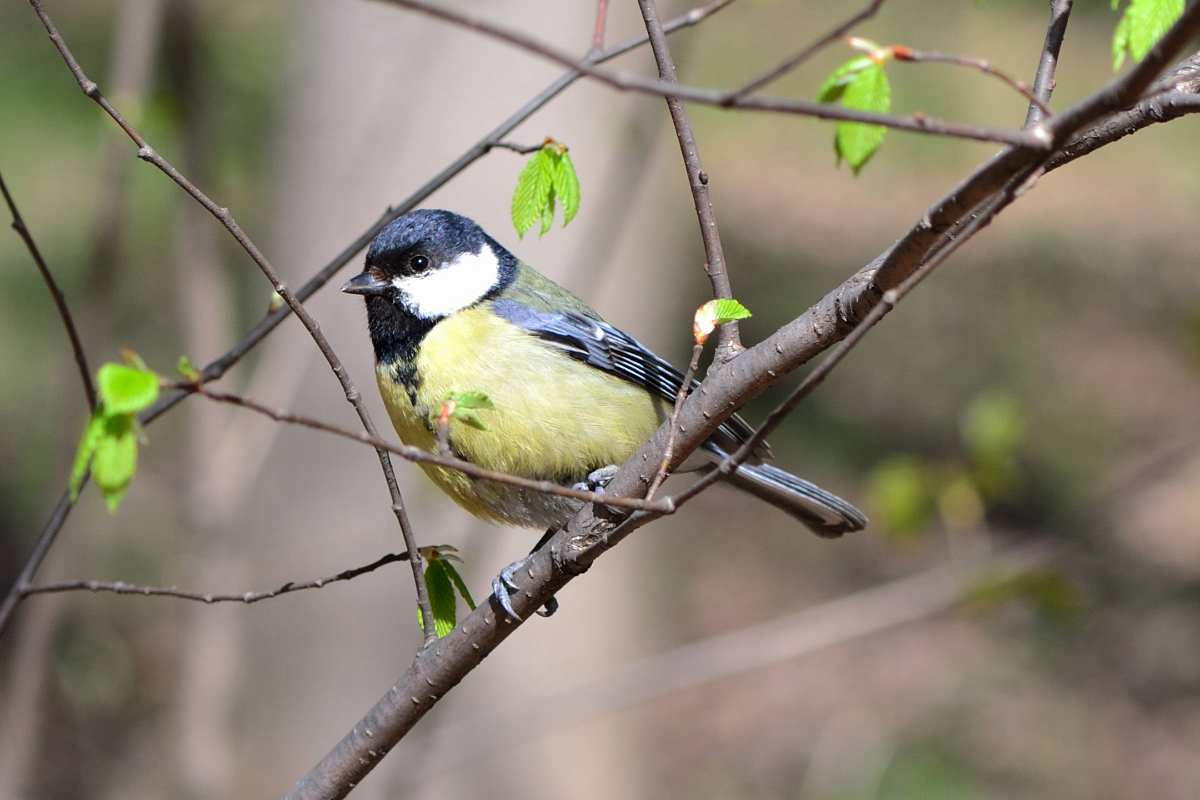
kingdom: Animalia
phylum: Chordata
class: Aves
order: Passeriformes
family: Paridae
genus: Parus
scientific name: Parus major
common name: Great tit
